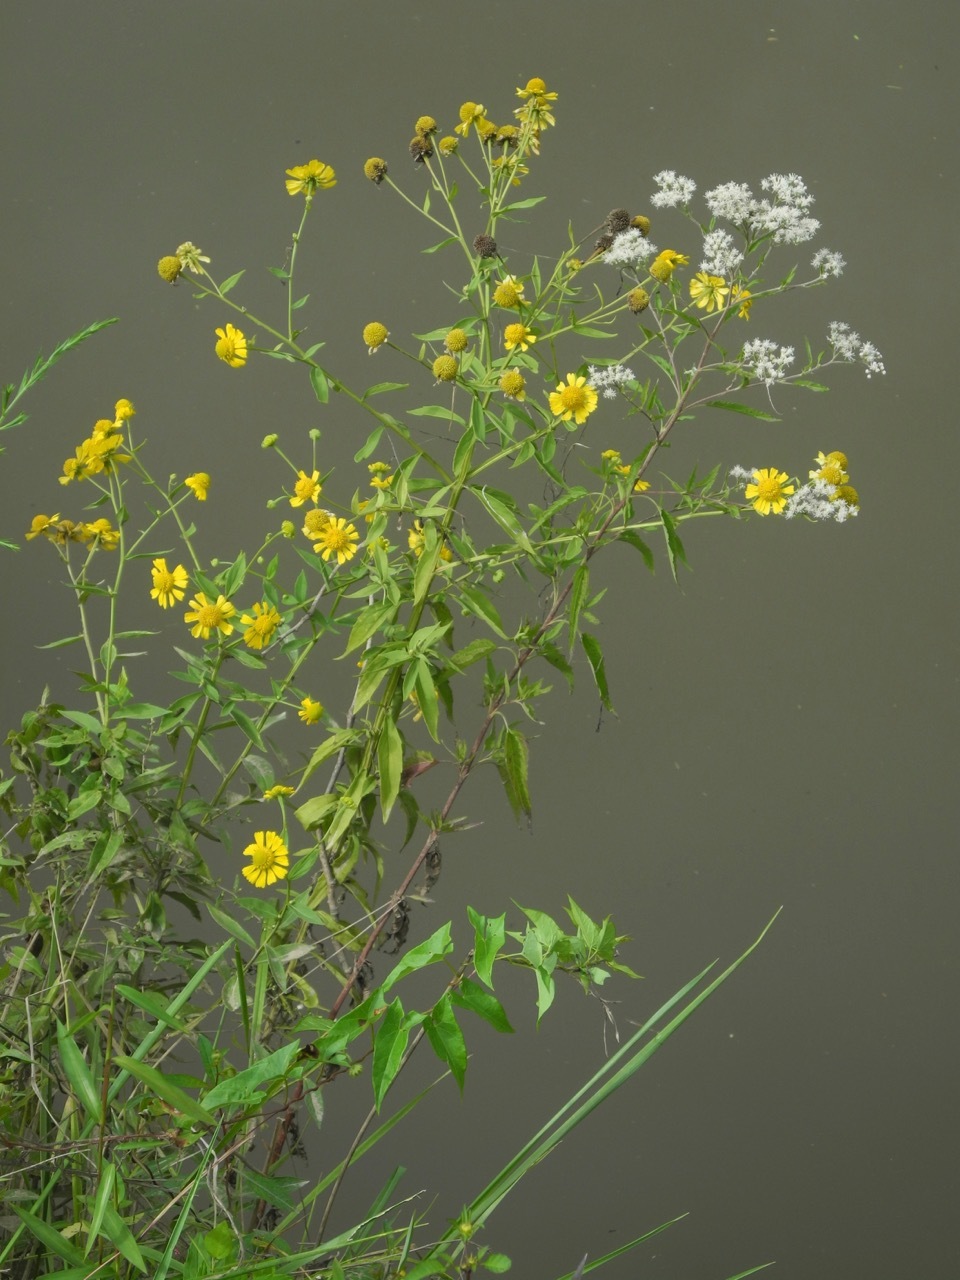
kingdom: Plantae
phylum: Tracheophyta
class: Magnoliopsida
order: Asterales
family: Asteraceae
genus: Eupatorium
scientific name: Eupatorium serotinum
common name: Late boneset
